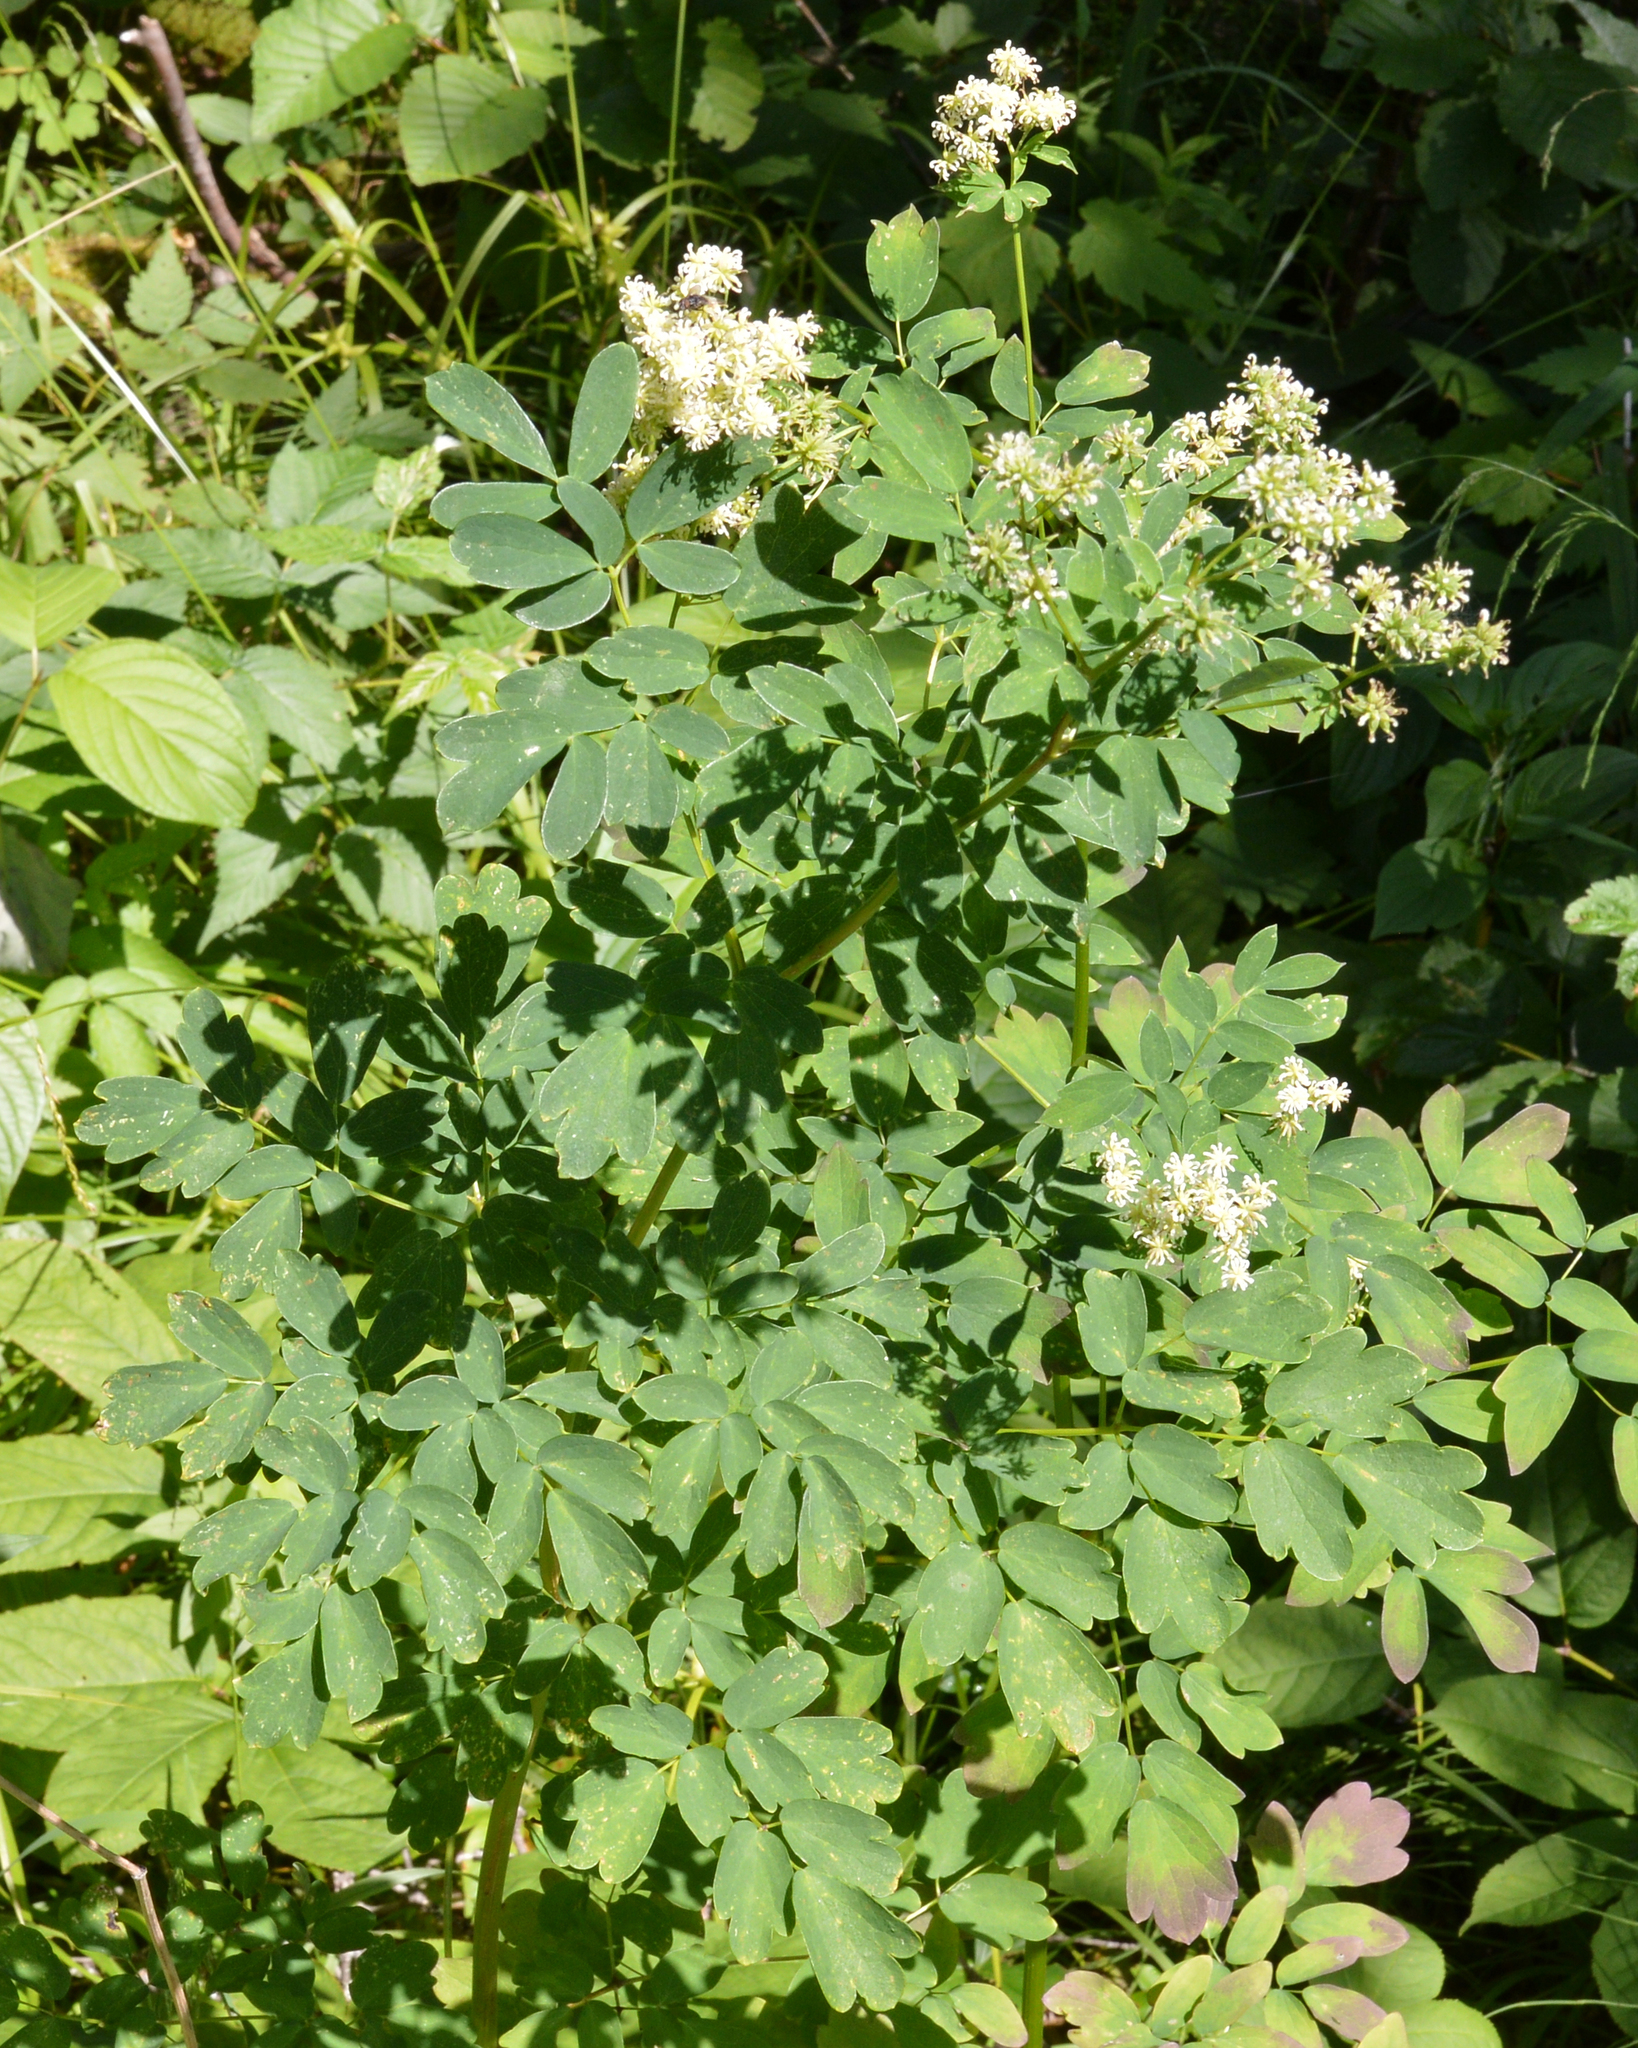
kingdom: Plantae
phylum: Tracheophyta
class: Magnoliopsida
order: Ranunculales
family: Ranunculaceae
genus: Thalictrum
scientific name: Thalictrum pubescens
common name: King-of-the-meadow
